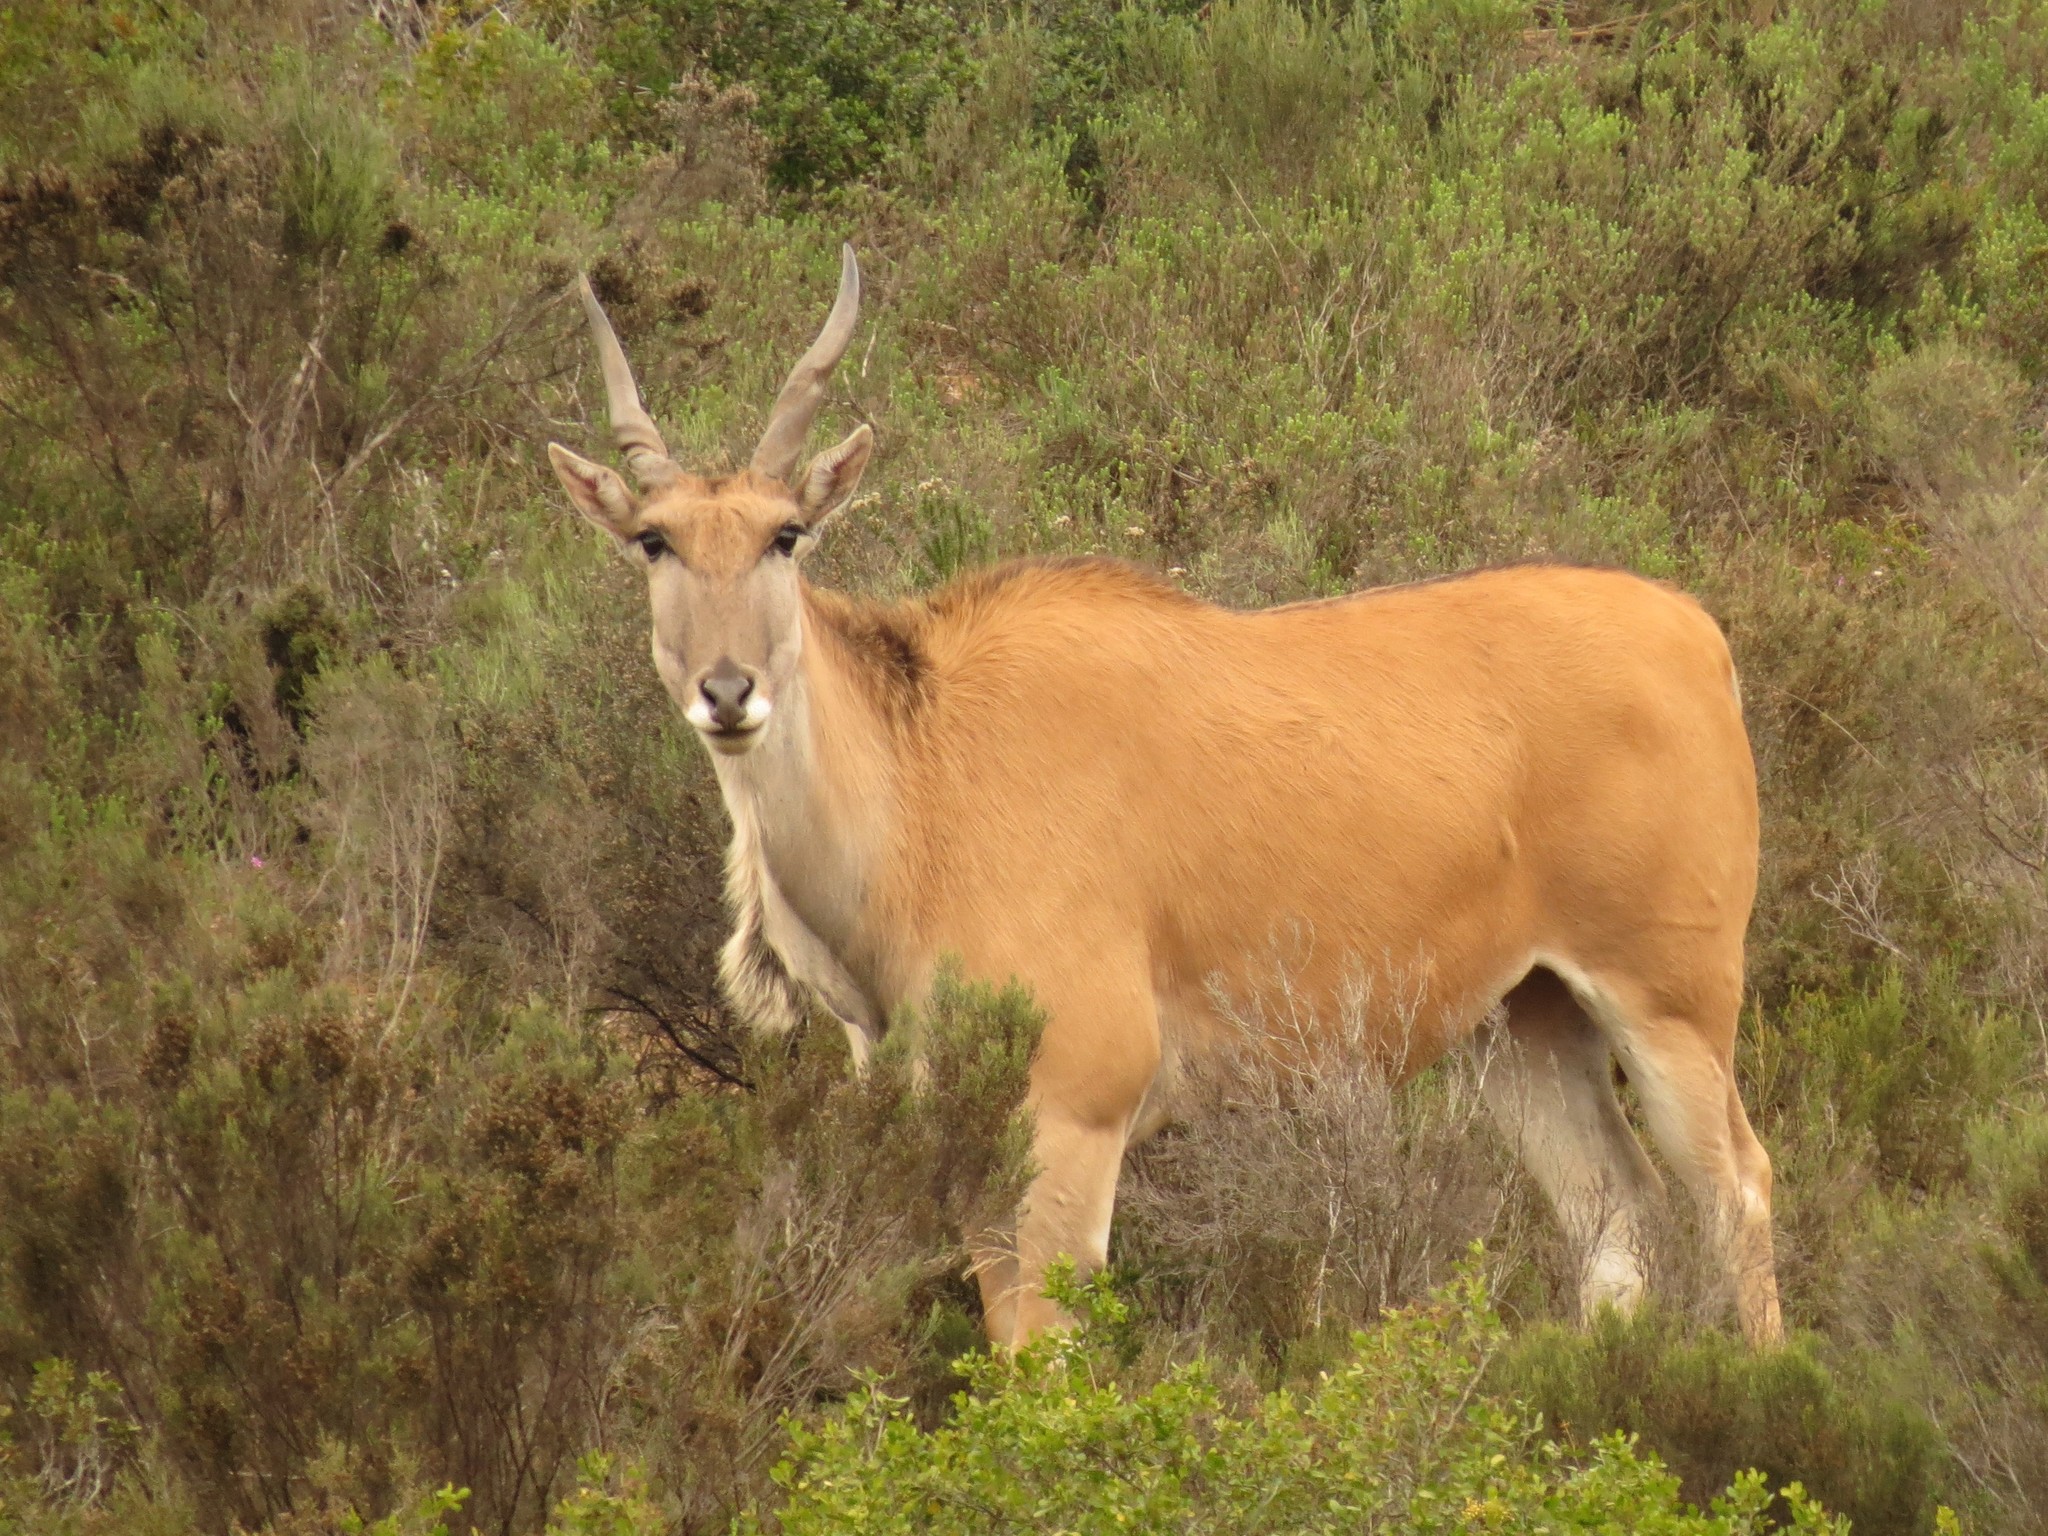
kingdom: Animalia
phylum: Chordata
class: Mammalia
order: Artiodactyla
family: Bovidae
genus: Taurotragus
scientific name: Taurotragus oryx
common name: Common eland
